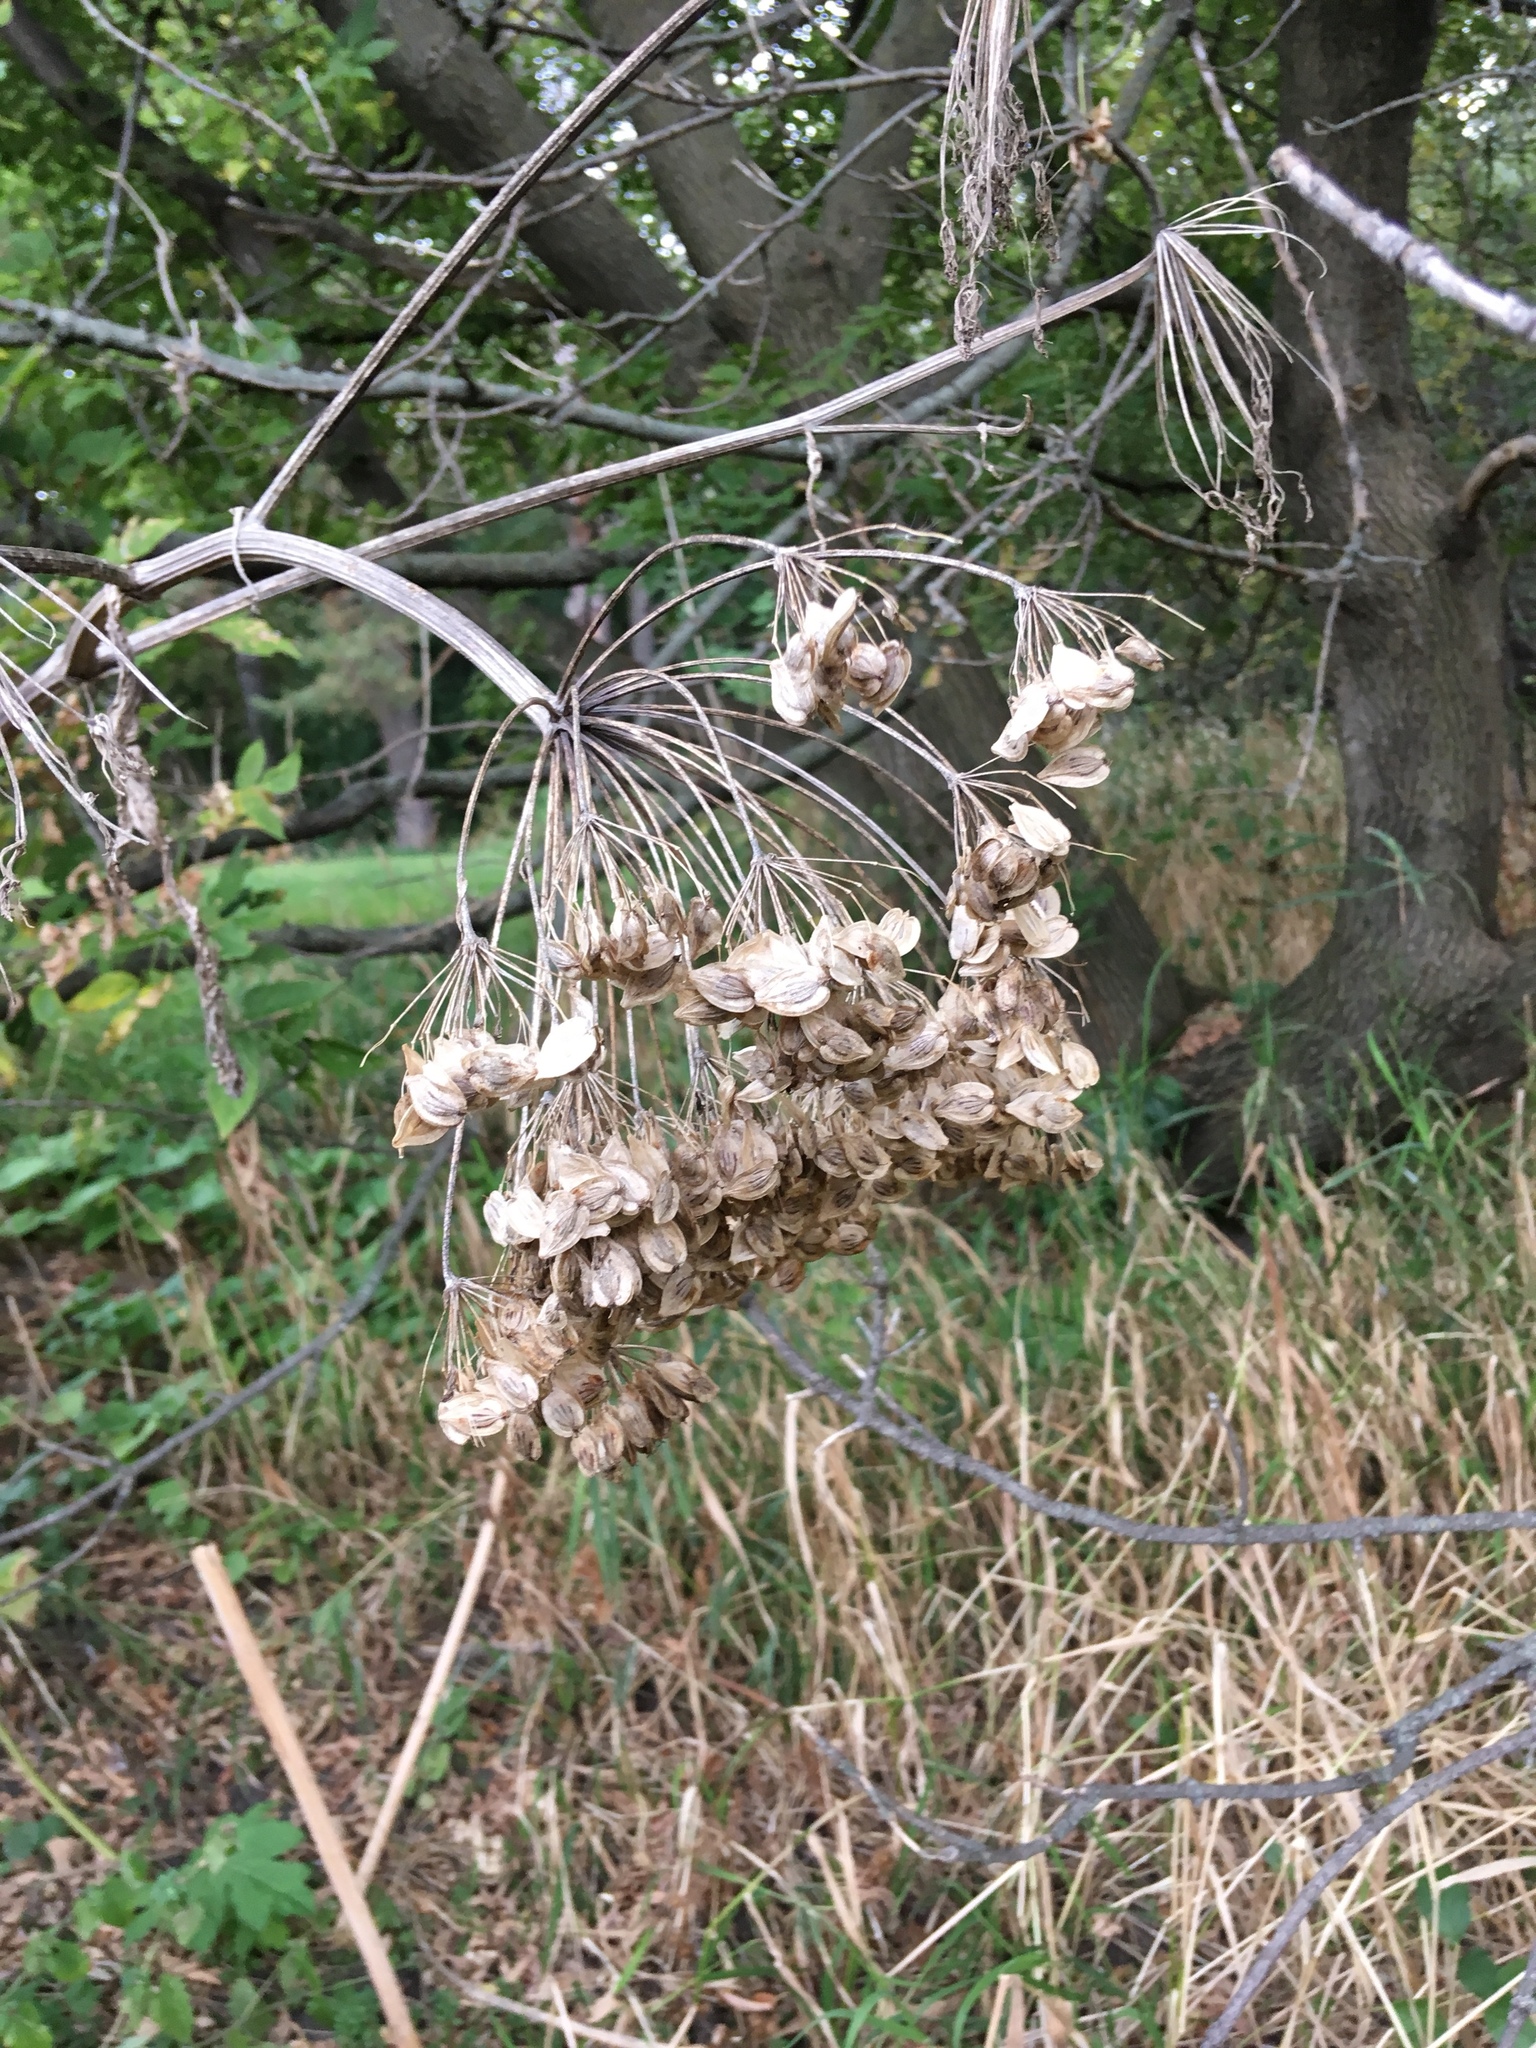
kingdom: Plantae
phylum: Tracheophyta
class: Magnoliopsida
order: Apiales
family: Apiaceae
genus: Heracleum
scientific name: Heracleum maximum
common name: American cow parsnip
